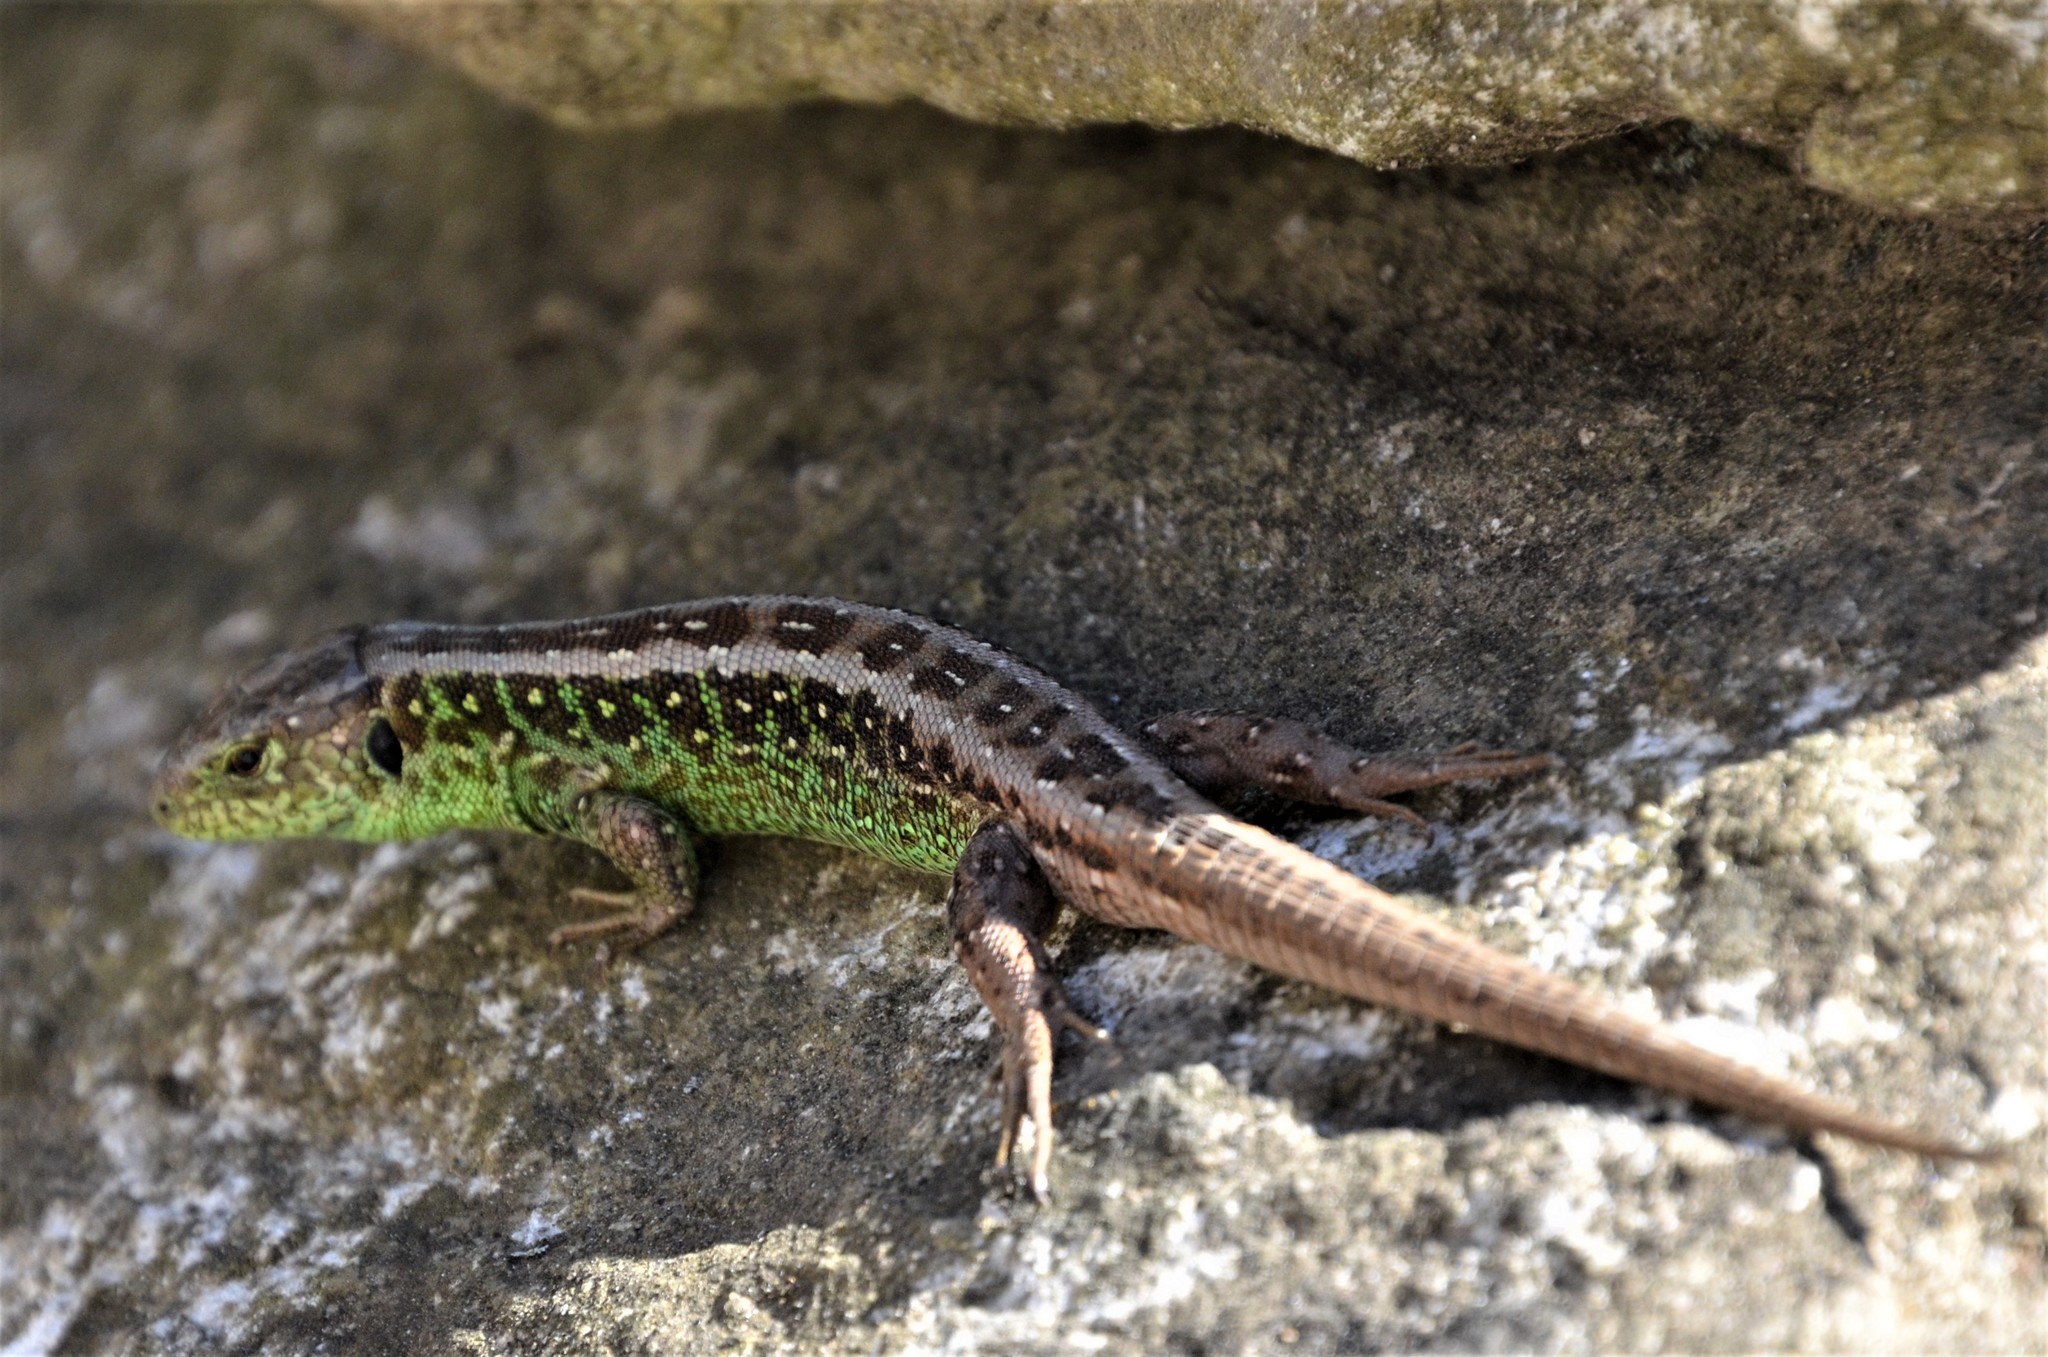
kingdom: Animalia
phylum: Chordata
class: Squamata
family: Lacertidae
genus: Lacerta
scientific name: Lacerta agilis
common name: Sand lizard
